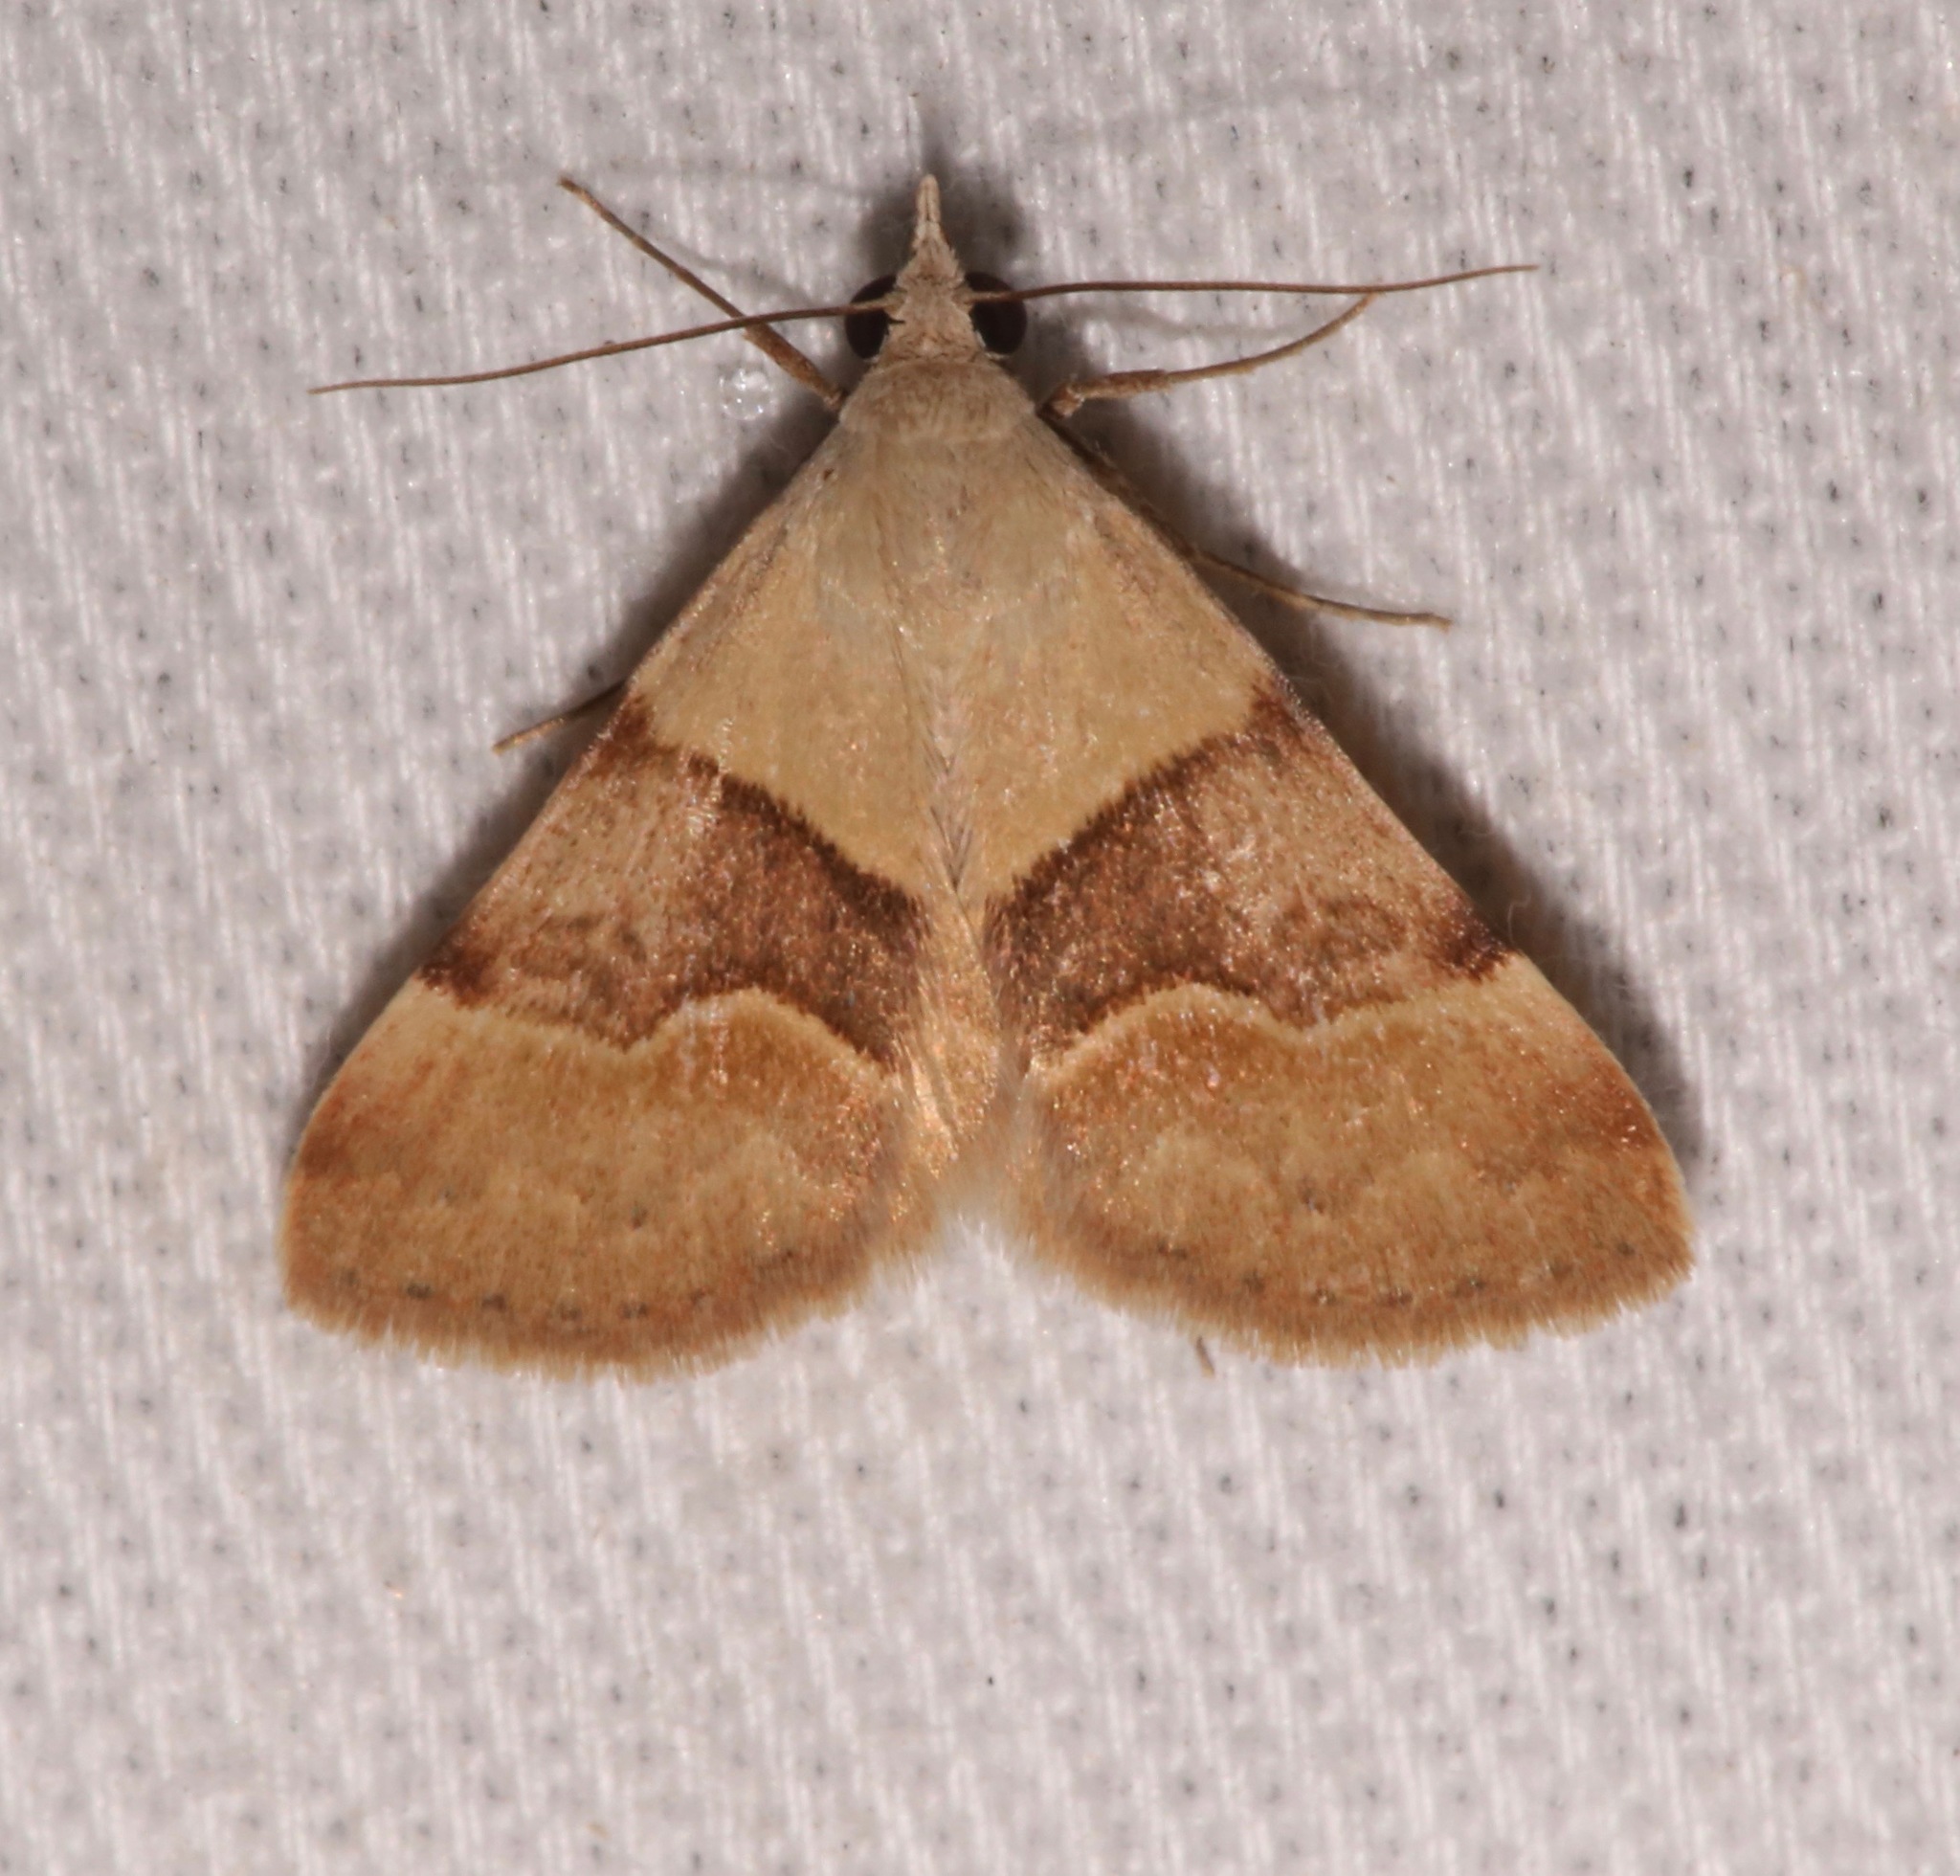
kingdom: Animalia
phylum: Arthropoda
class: Insecta
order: Lepidoptera
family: Erebidae
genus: Hemeroplanis
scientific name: Hemeroplanis incusalis
